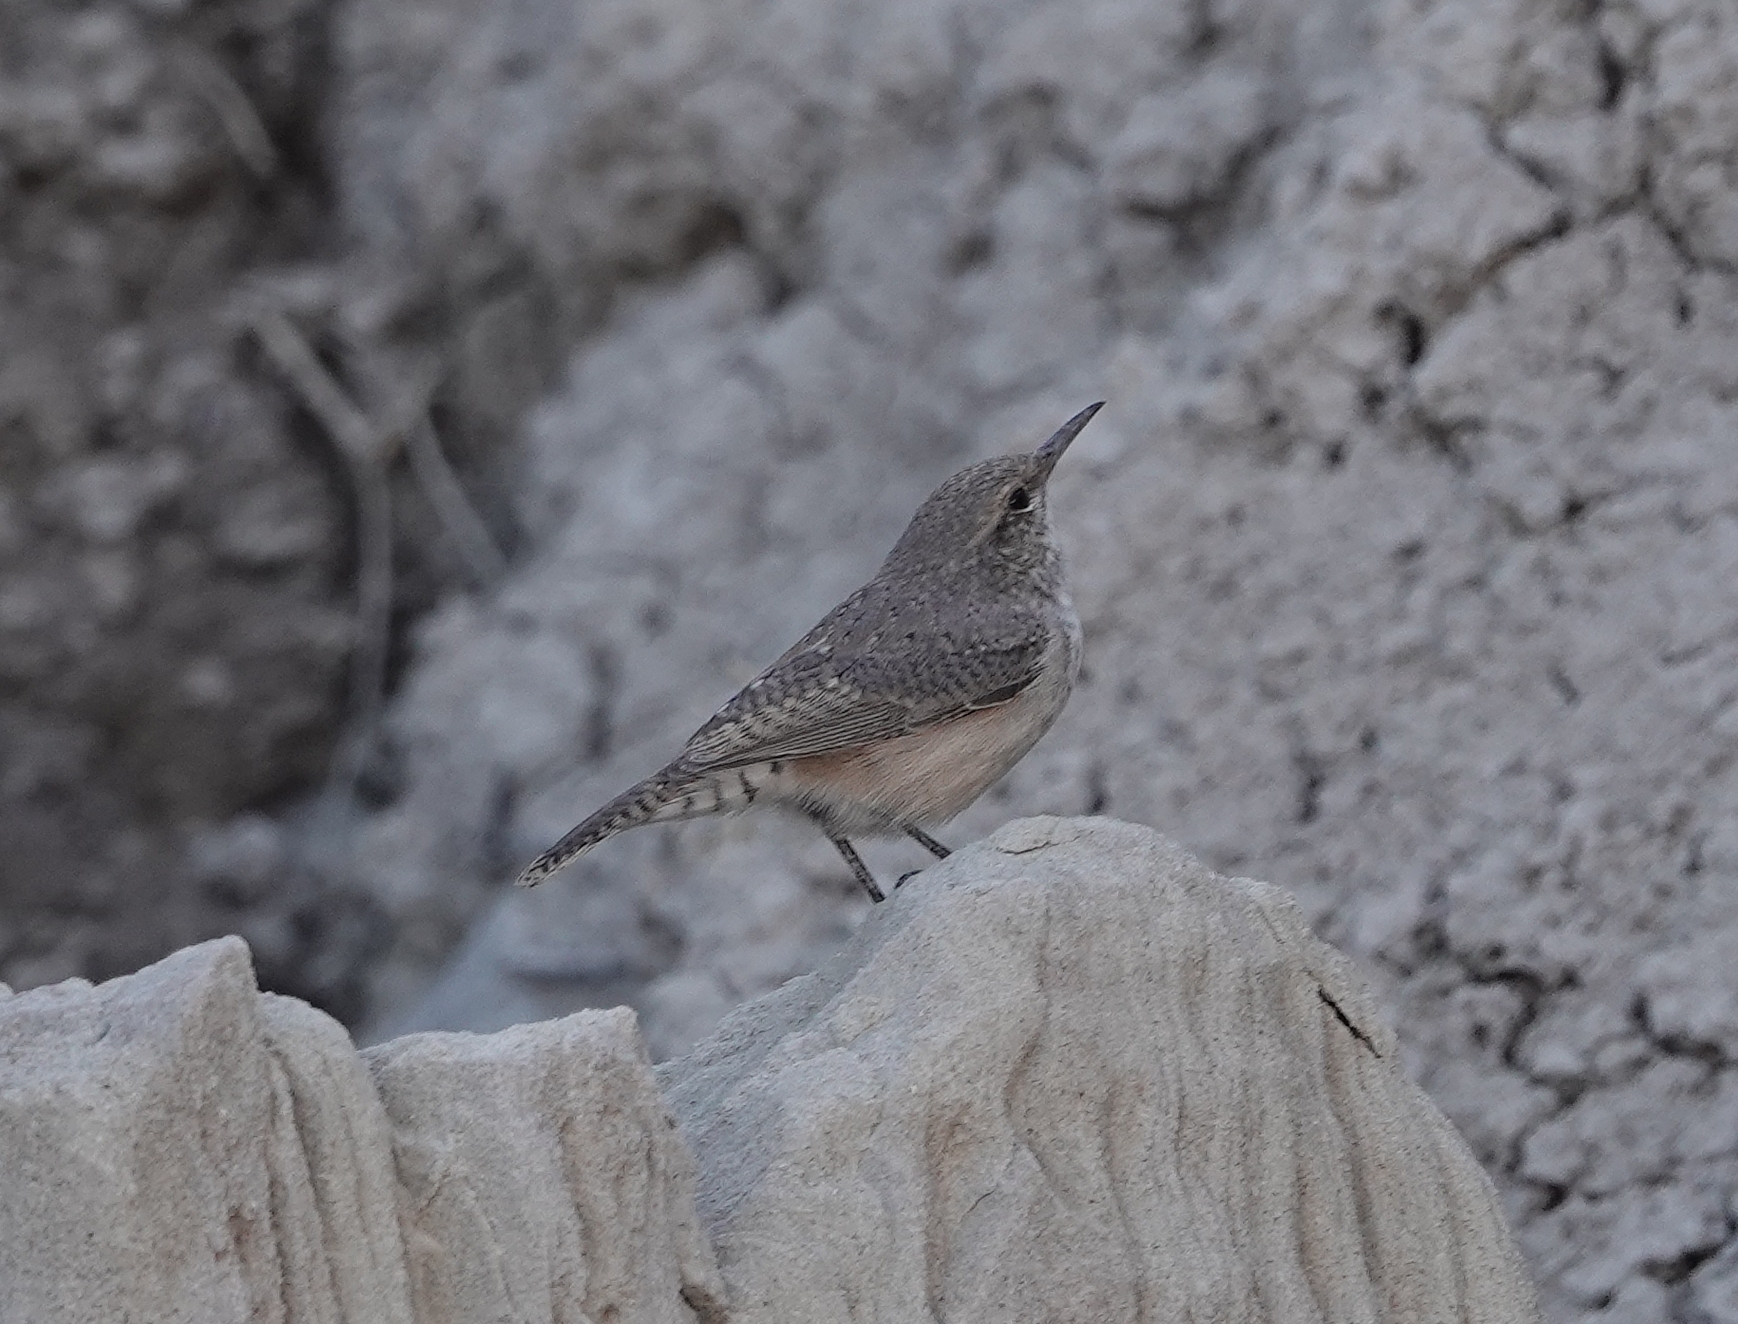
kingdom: Animalia
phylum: Chordata
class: Aves
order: Passeriformes
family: Troglodytidae
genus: Salpinctes
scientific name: Salpinctes obsoletus
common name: Rock wren
